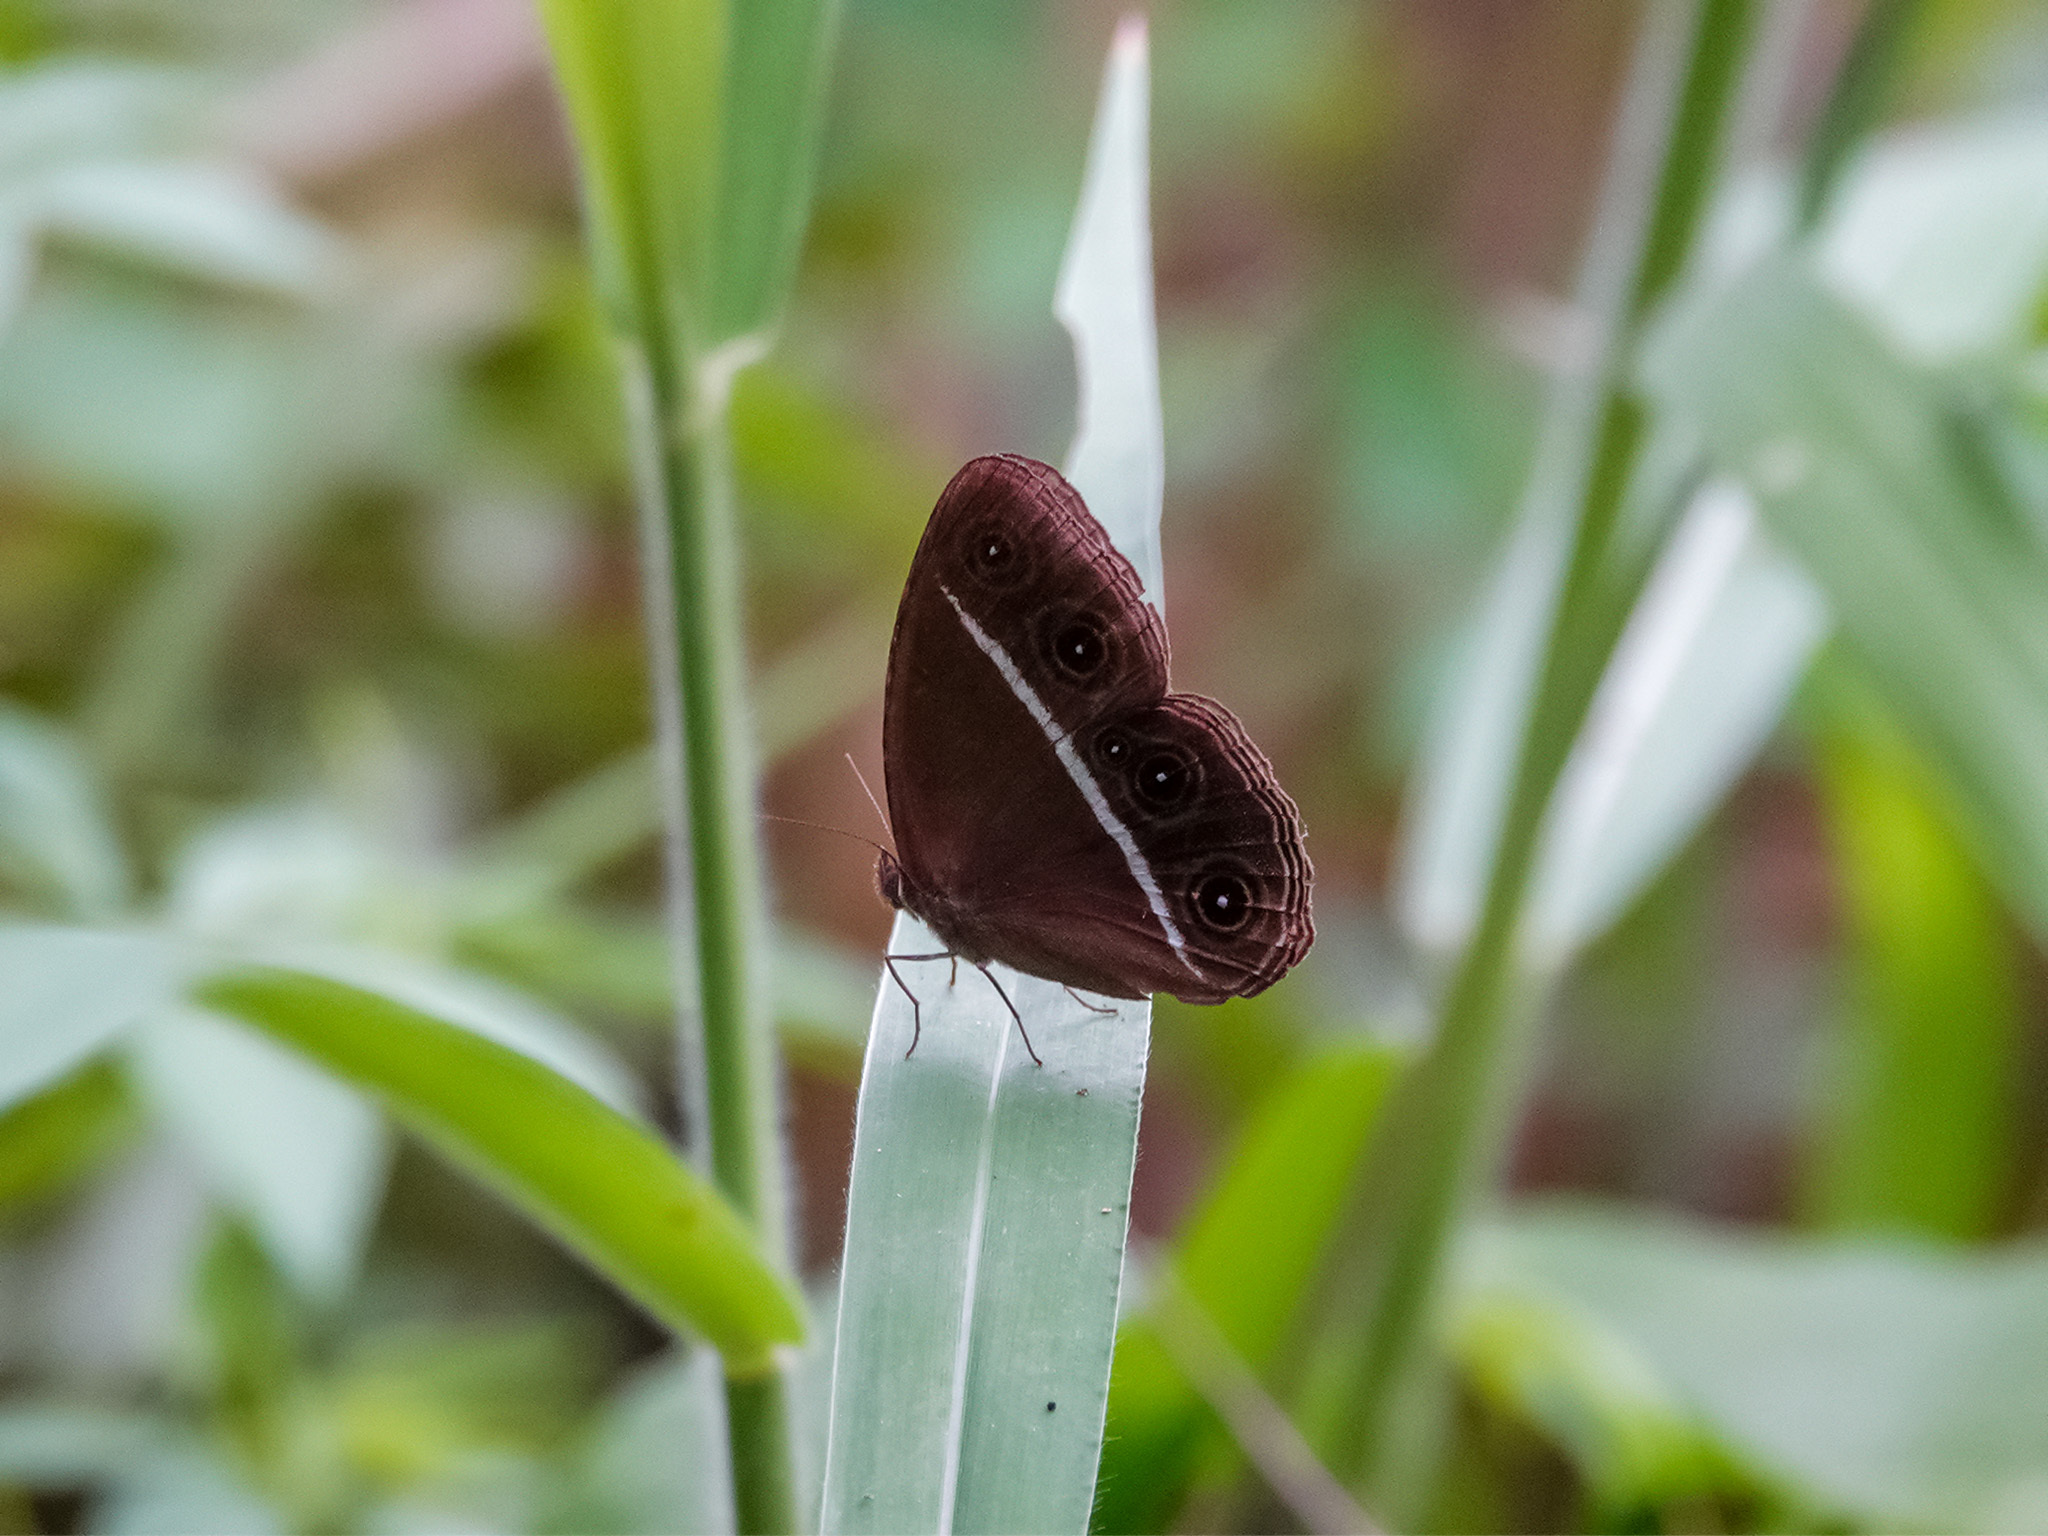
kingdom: Animalia
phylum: Arthropoda
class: Insecta
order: Lepidoptera
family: Nymphalidae
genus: Orsotriaena
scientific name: Orsotriaena medus
